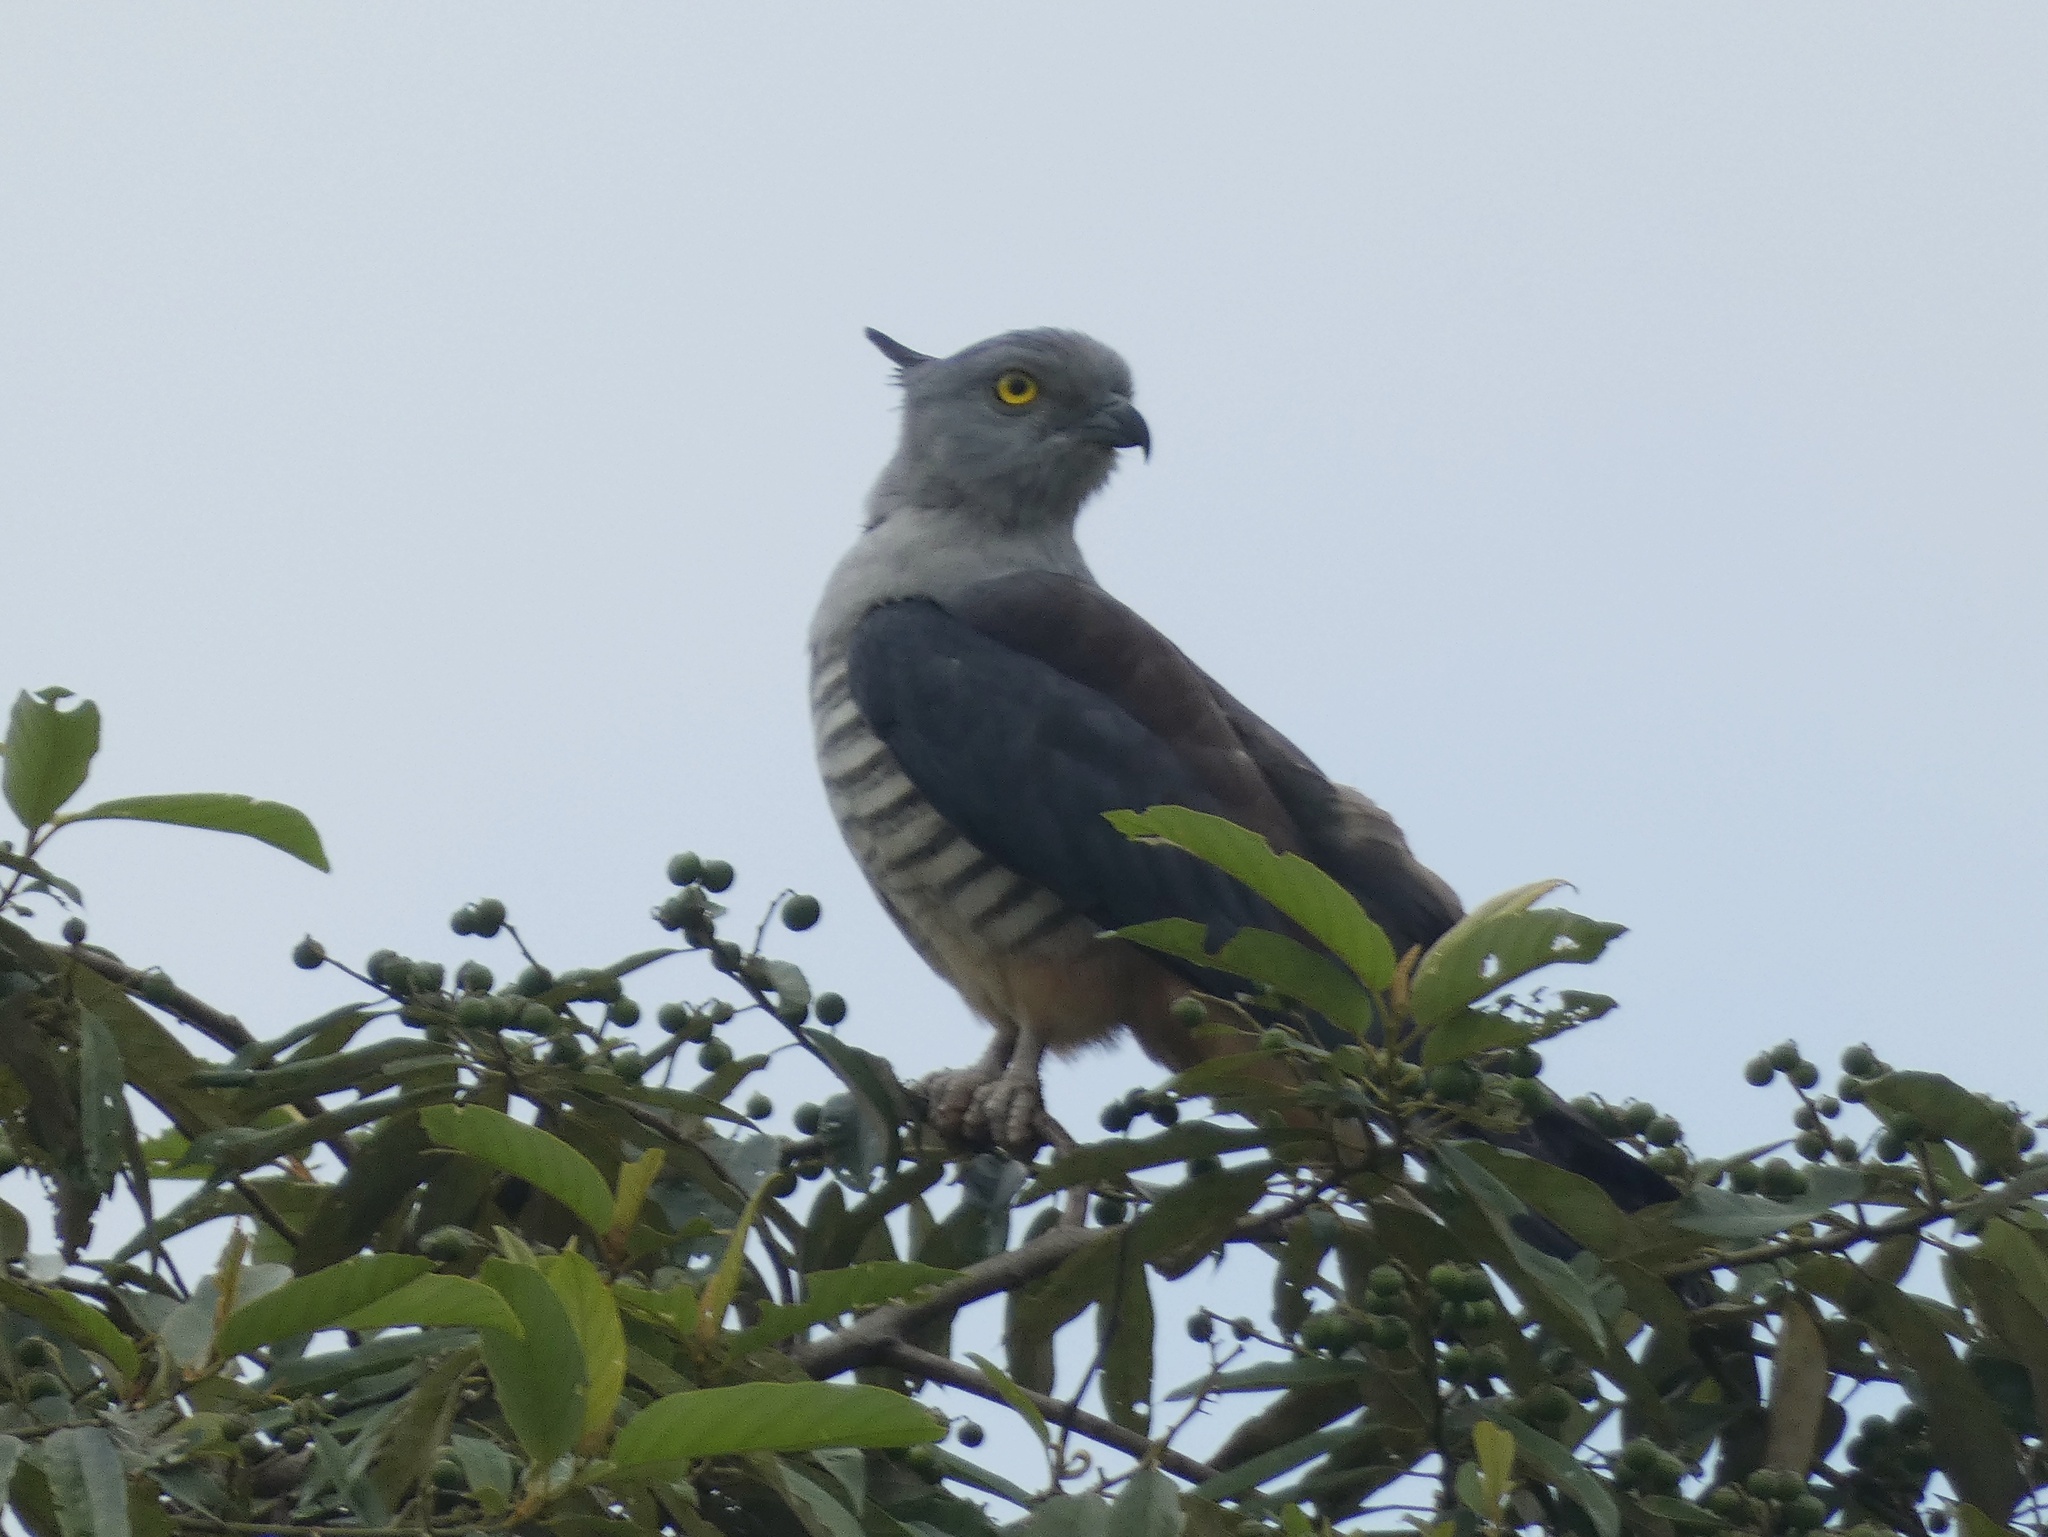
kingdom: Animalia
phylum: Chordata
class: Aves
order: Accipitriformes
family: Accipitridae
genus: Aviceda
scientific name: Aviceda subcristata
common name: Pacific baza
